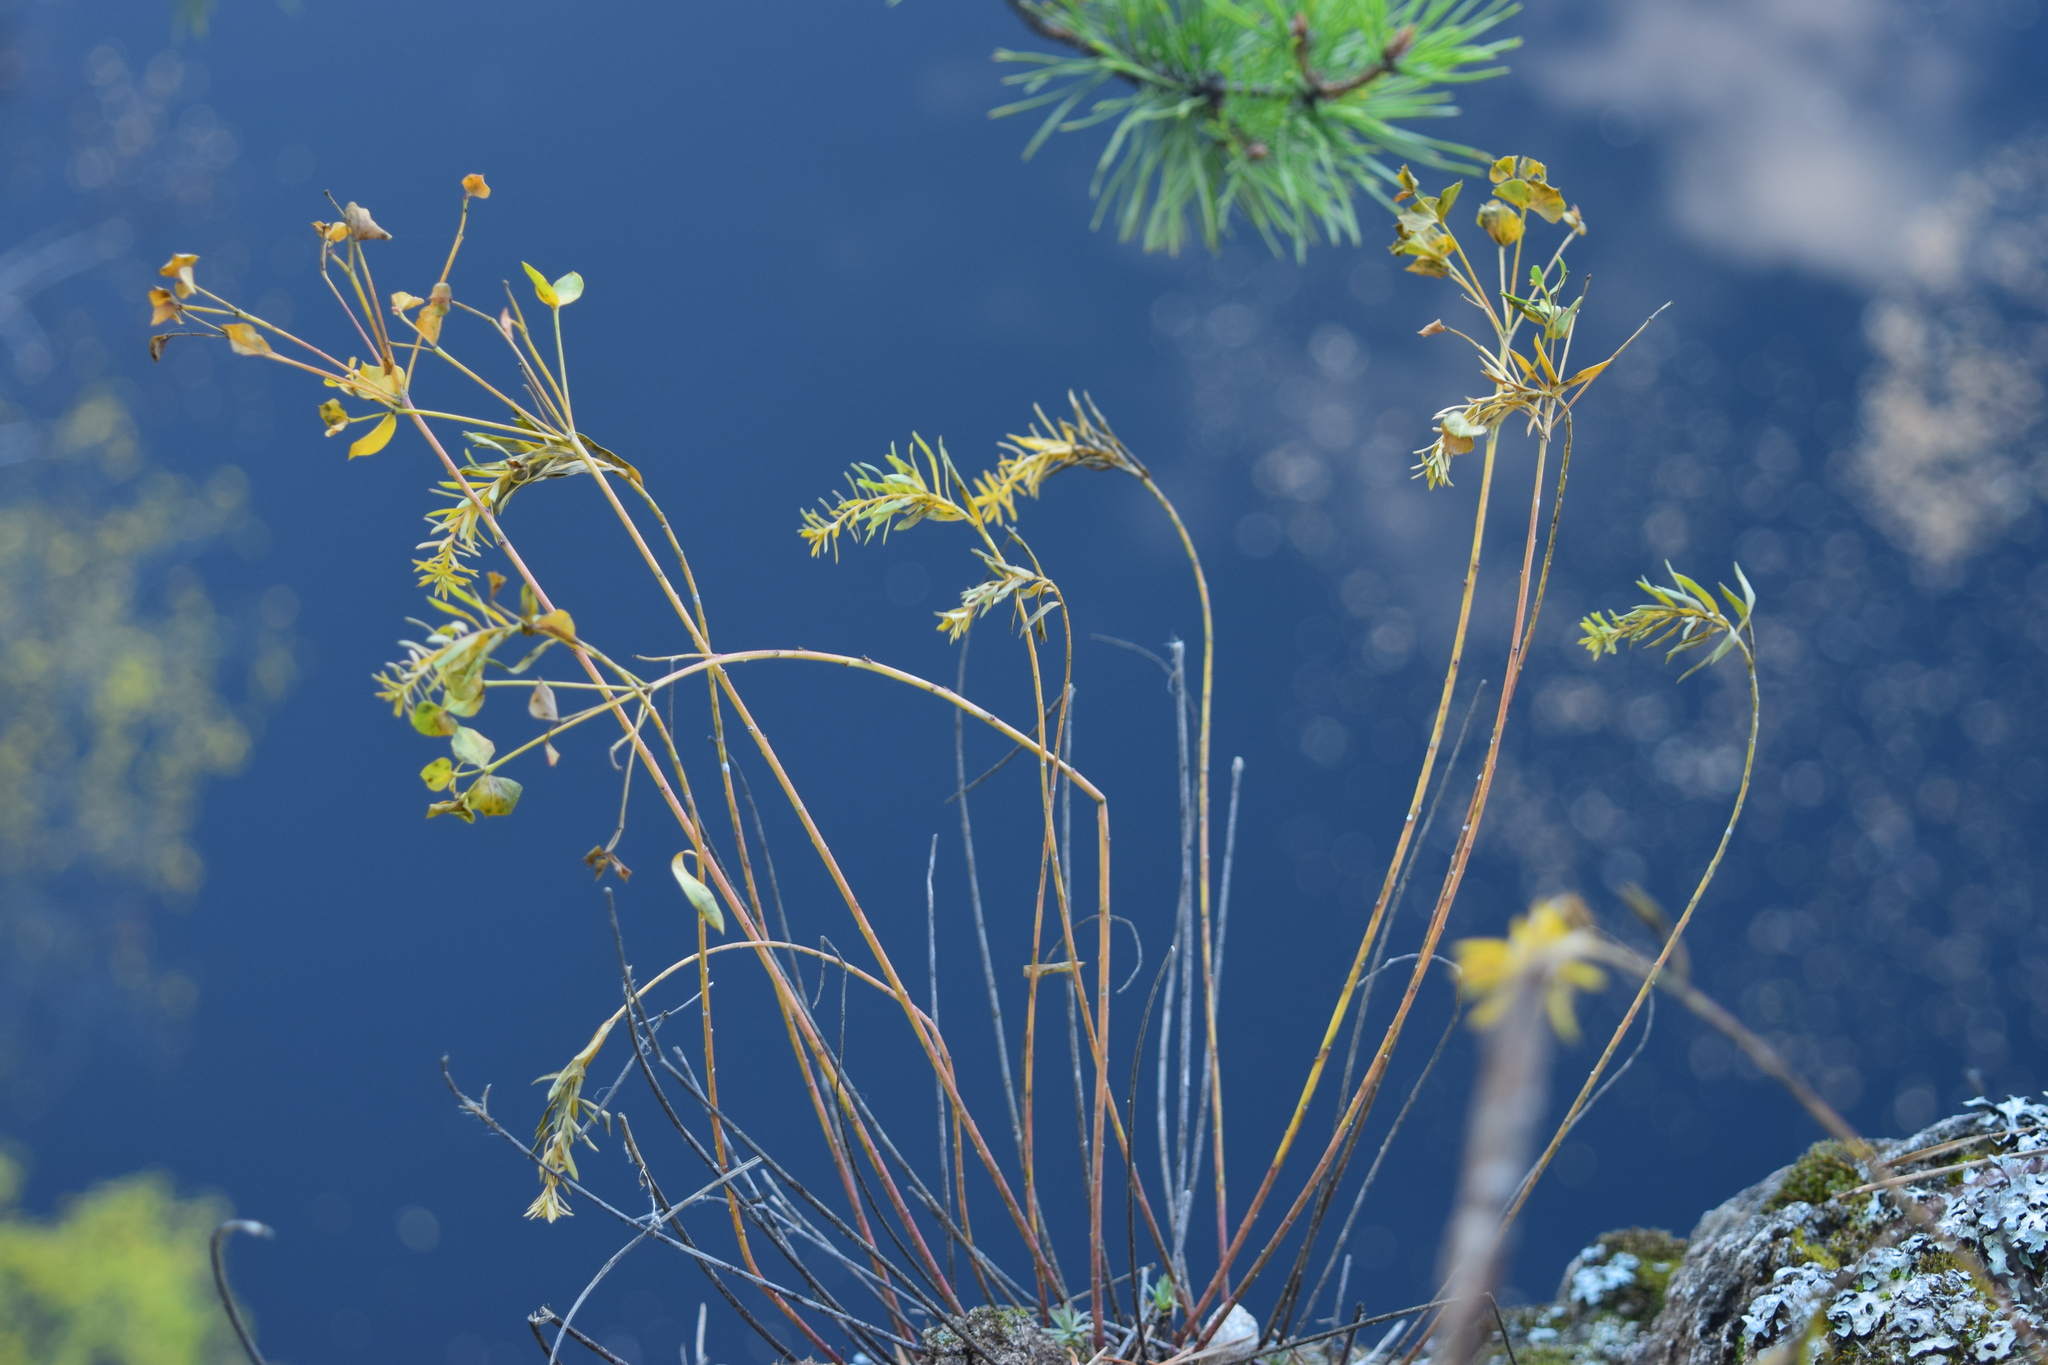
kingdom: Plantae
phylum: Tracheophyta
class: Magnoliopsida
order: Malpighiales
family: Euphorbiaceae
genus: Euphorbia
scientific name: Euphorbia caesia
